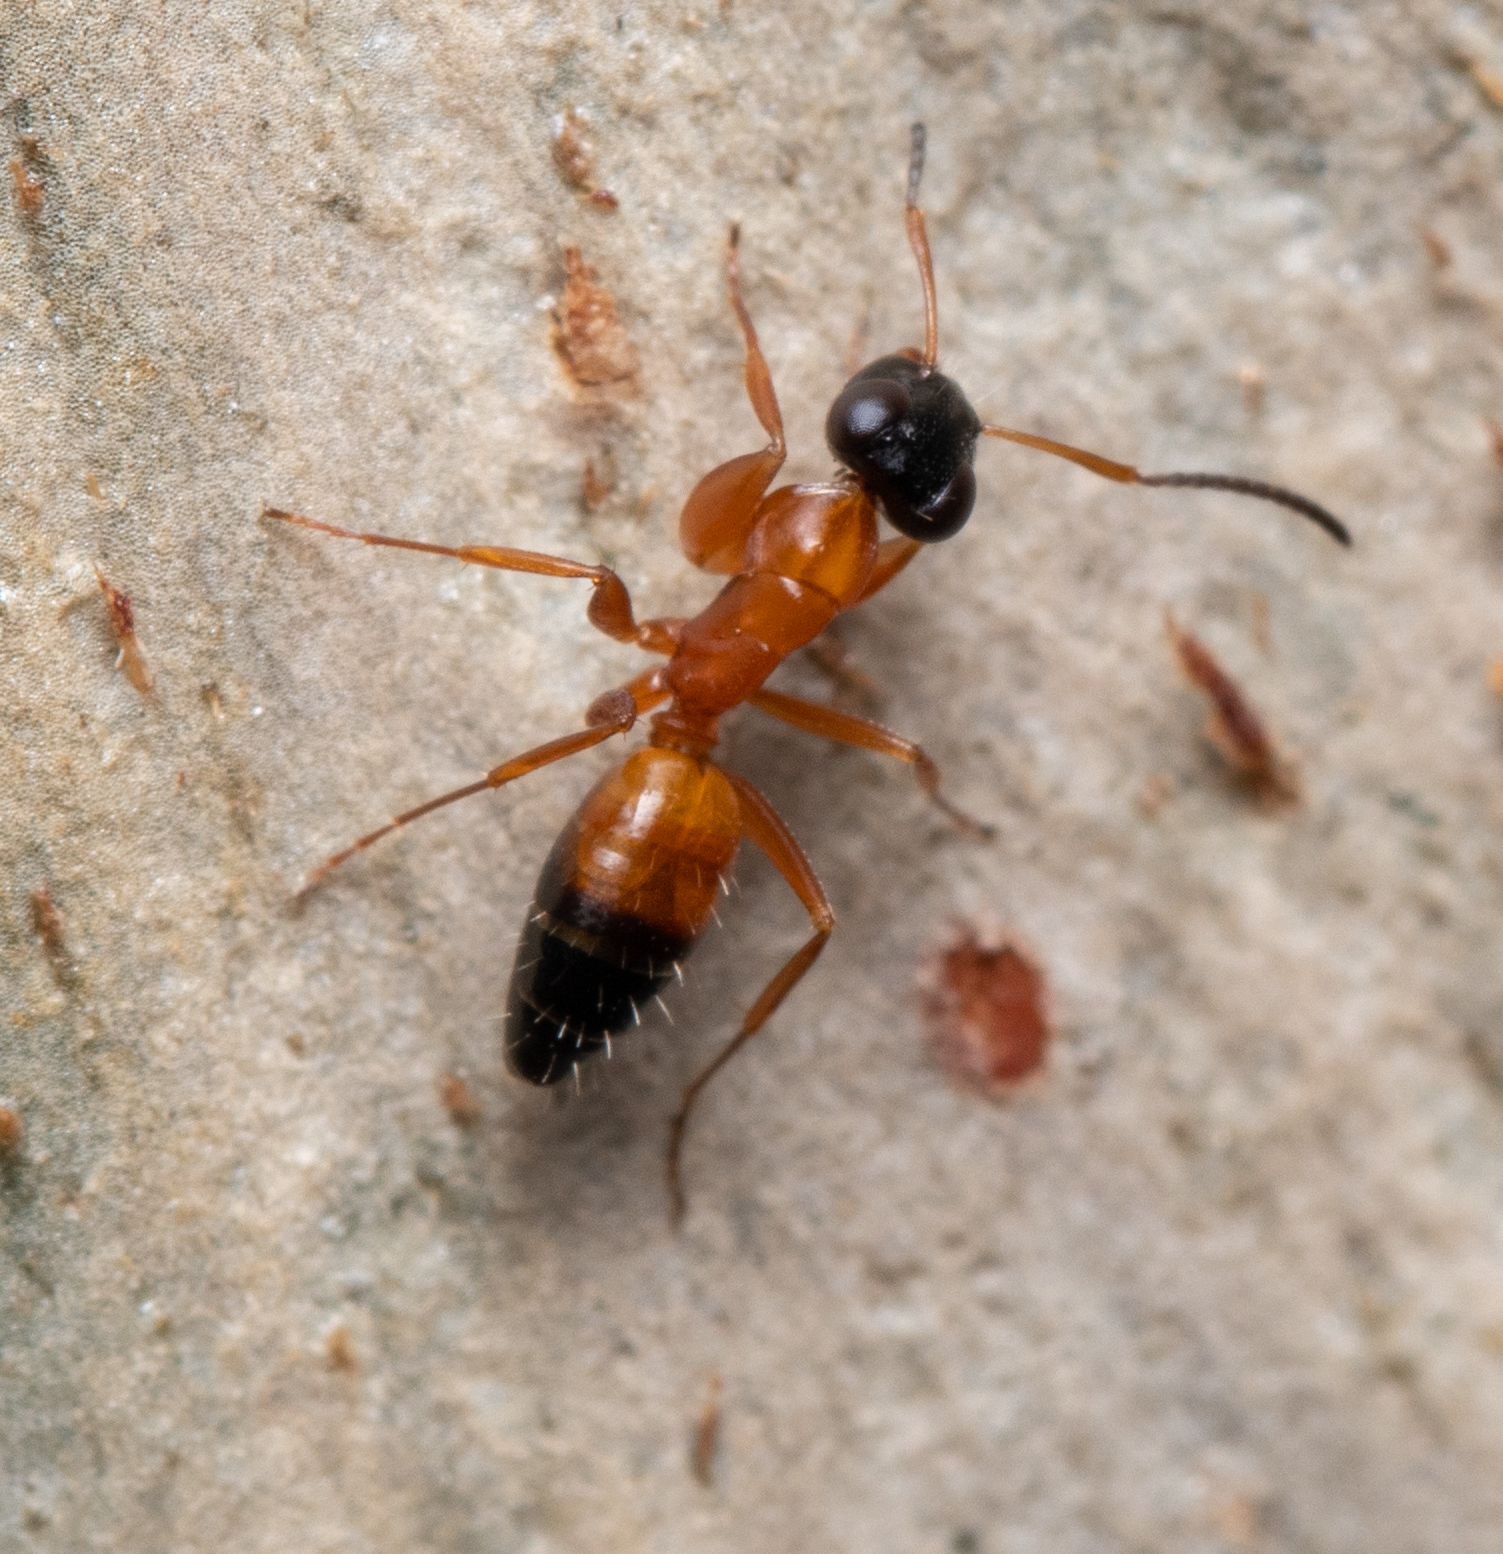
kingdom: Animalia
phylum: Arthropoda
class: Insecta
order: Hymenoptera
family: Formicidae
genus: Opisthopsis
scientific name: Opisthopsis rufithorax
